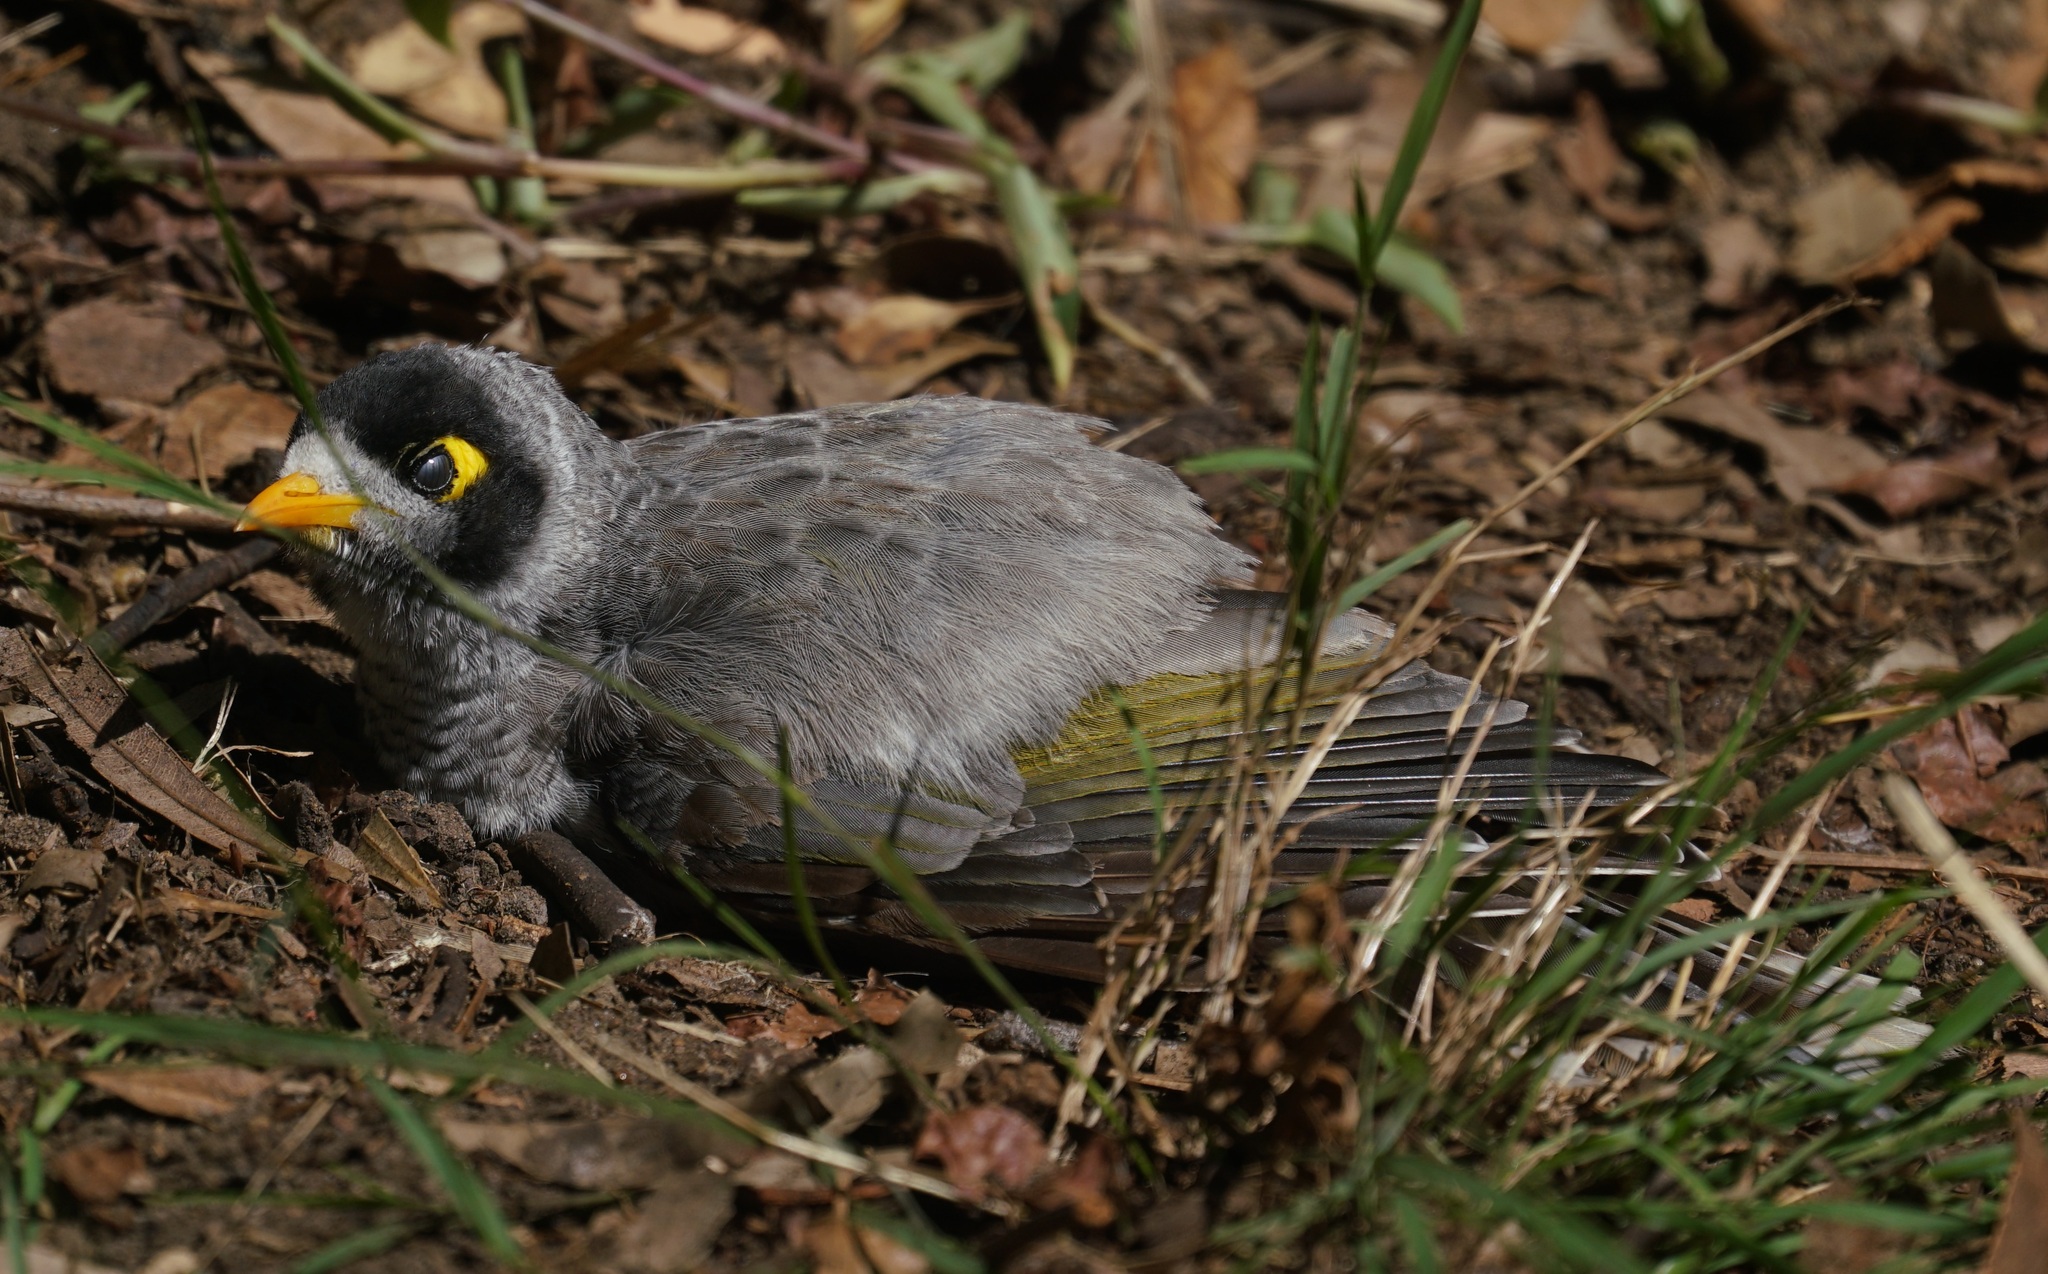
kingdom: Animalia
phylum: Chordata
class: Aves
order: Passeriformes
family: Meliphagidae
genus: Manorina
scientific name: Manorina melanocephala
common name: Noisy miner
